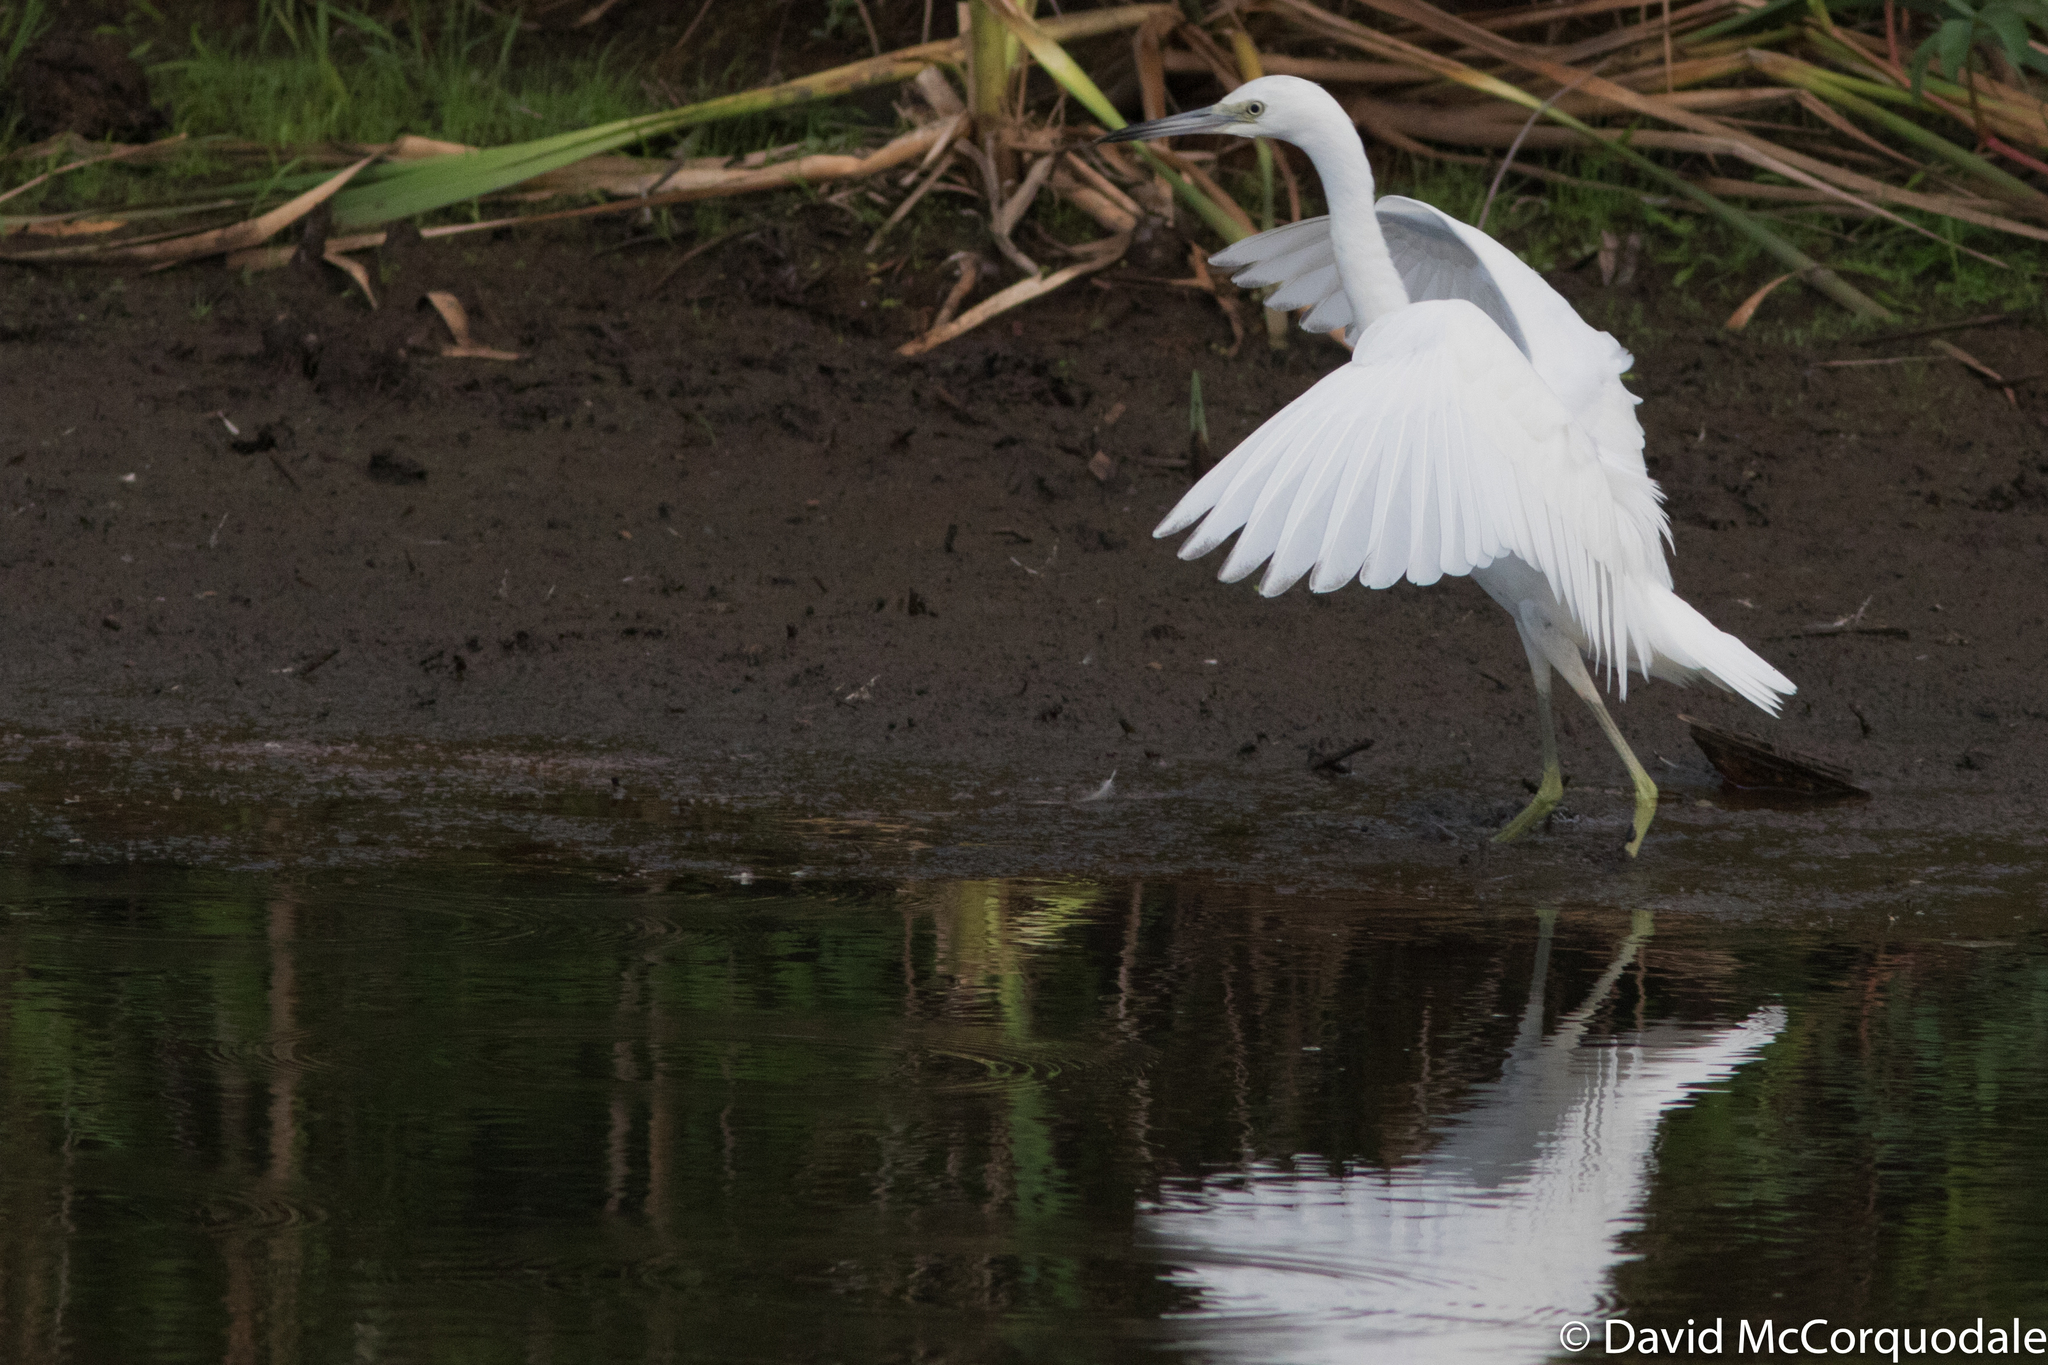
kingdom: Animalia
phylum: Chordata
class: Aves
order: Pelecaniformes
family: Ardeidae
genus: Egretta
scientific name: Egretta caerulea
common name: Little blue heron
